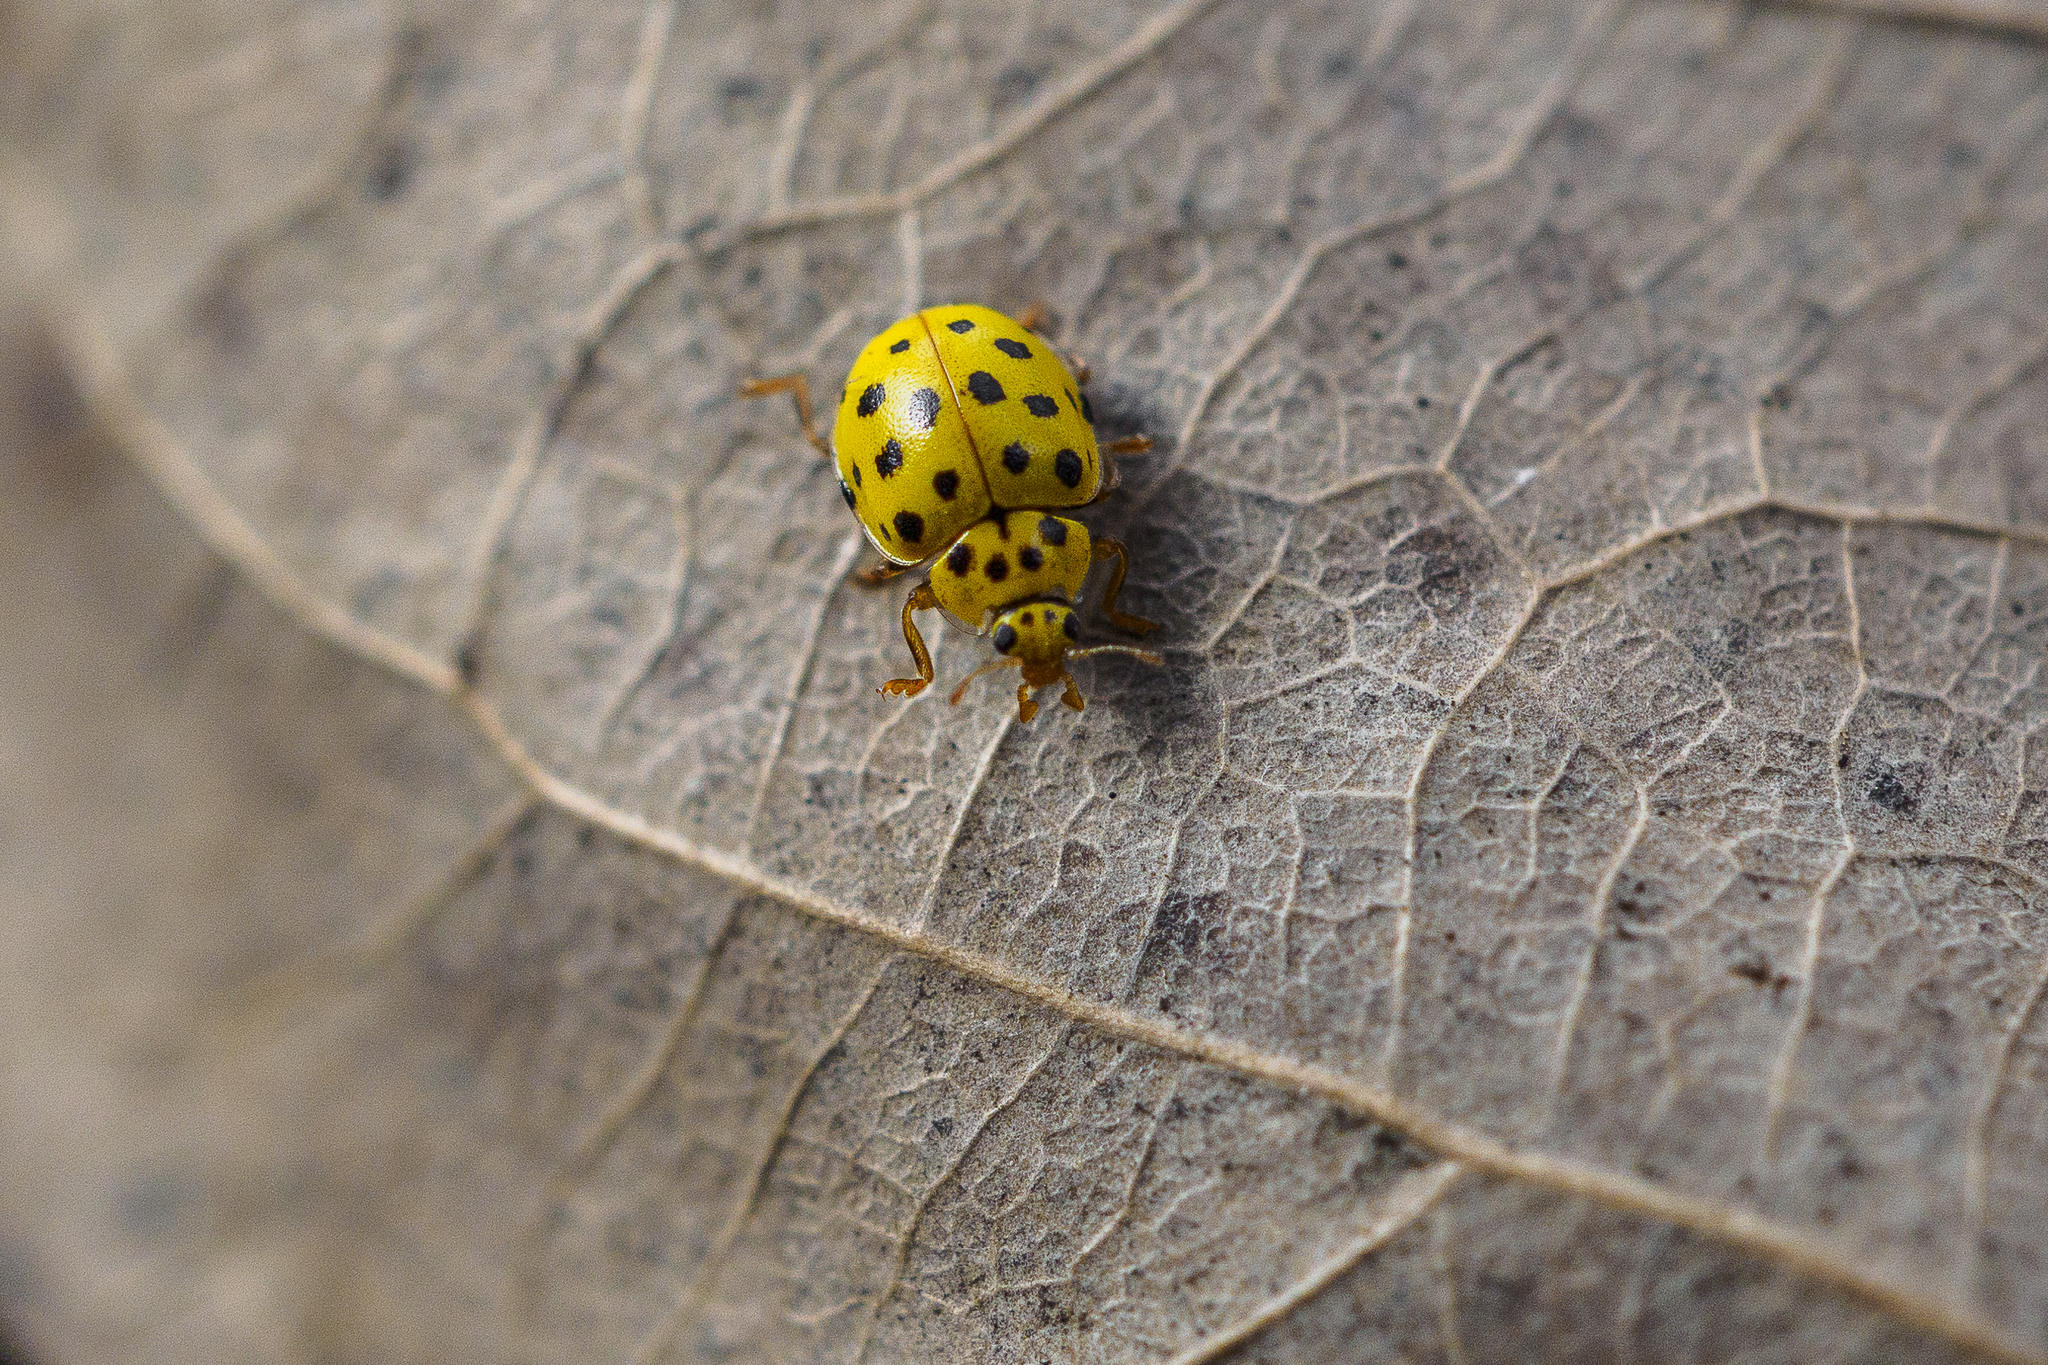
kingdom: Animalia
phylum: Arthropoda
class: Insecta
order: Coleoptera
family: Coccinellidae
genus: Psyllobora
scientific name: Psyllobora vigintiduopunctata
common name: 22-spot ladybird
